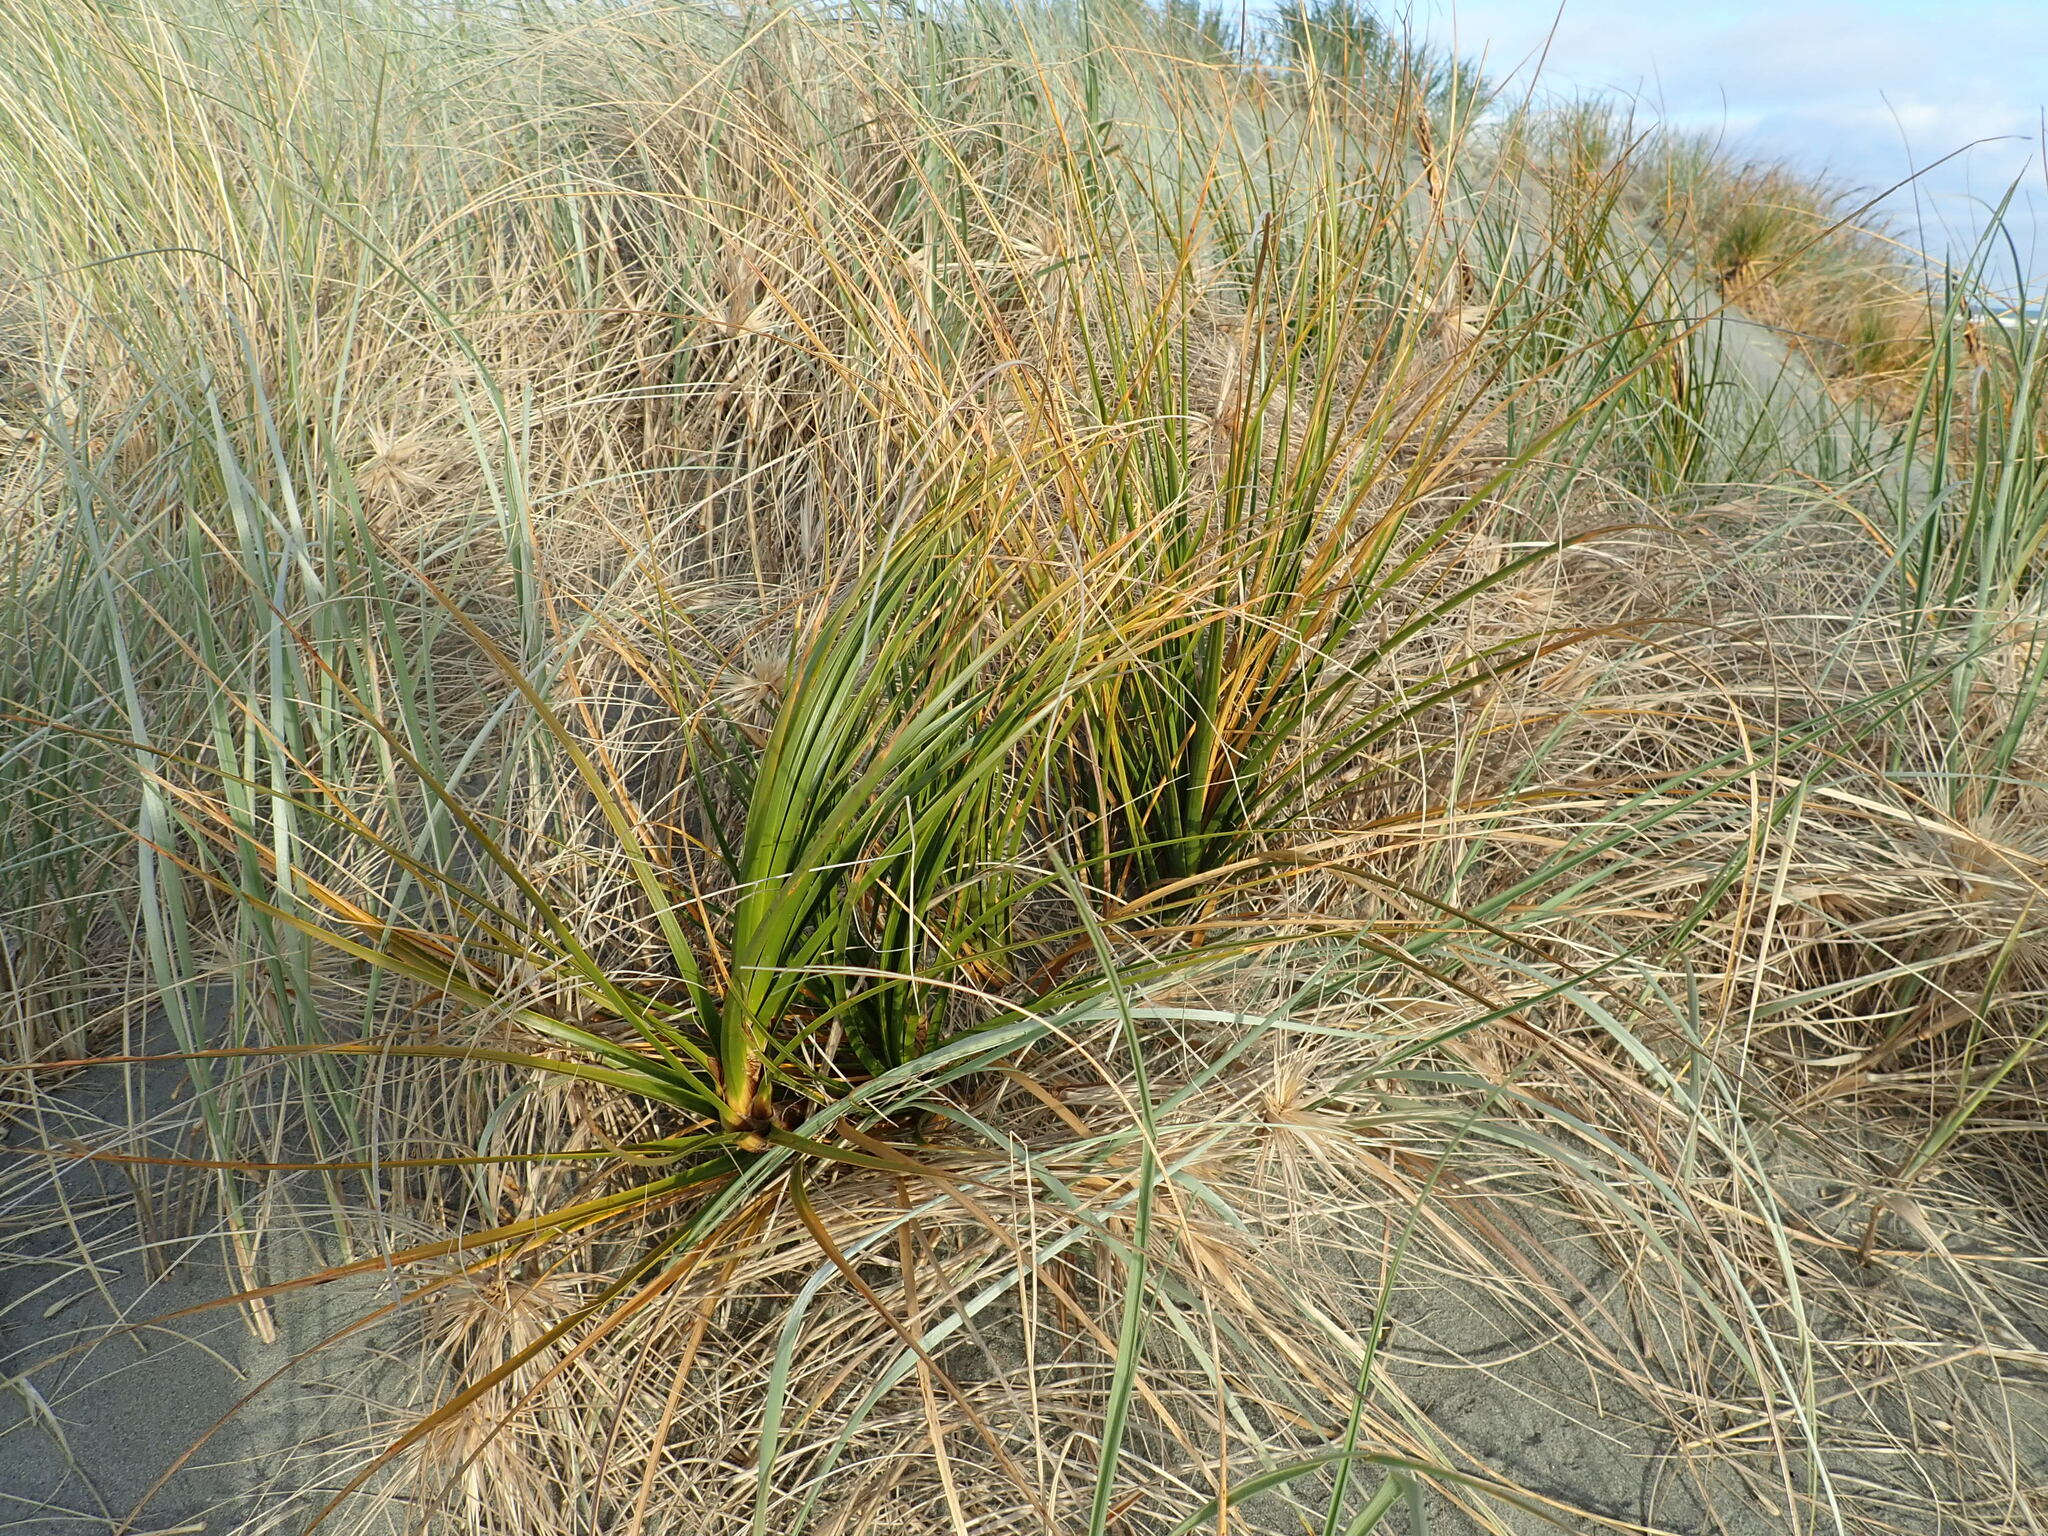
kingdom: Plantae
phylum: Tracheophyta
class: Liliopsida
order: Poales
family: Cyperaceae
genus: Ficinia
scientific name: Ficinia spiralis
